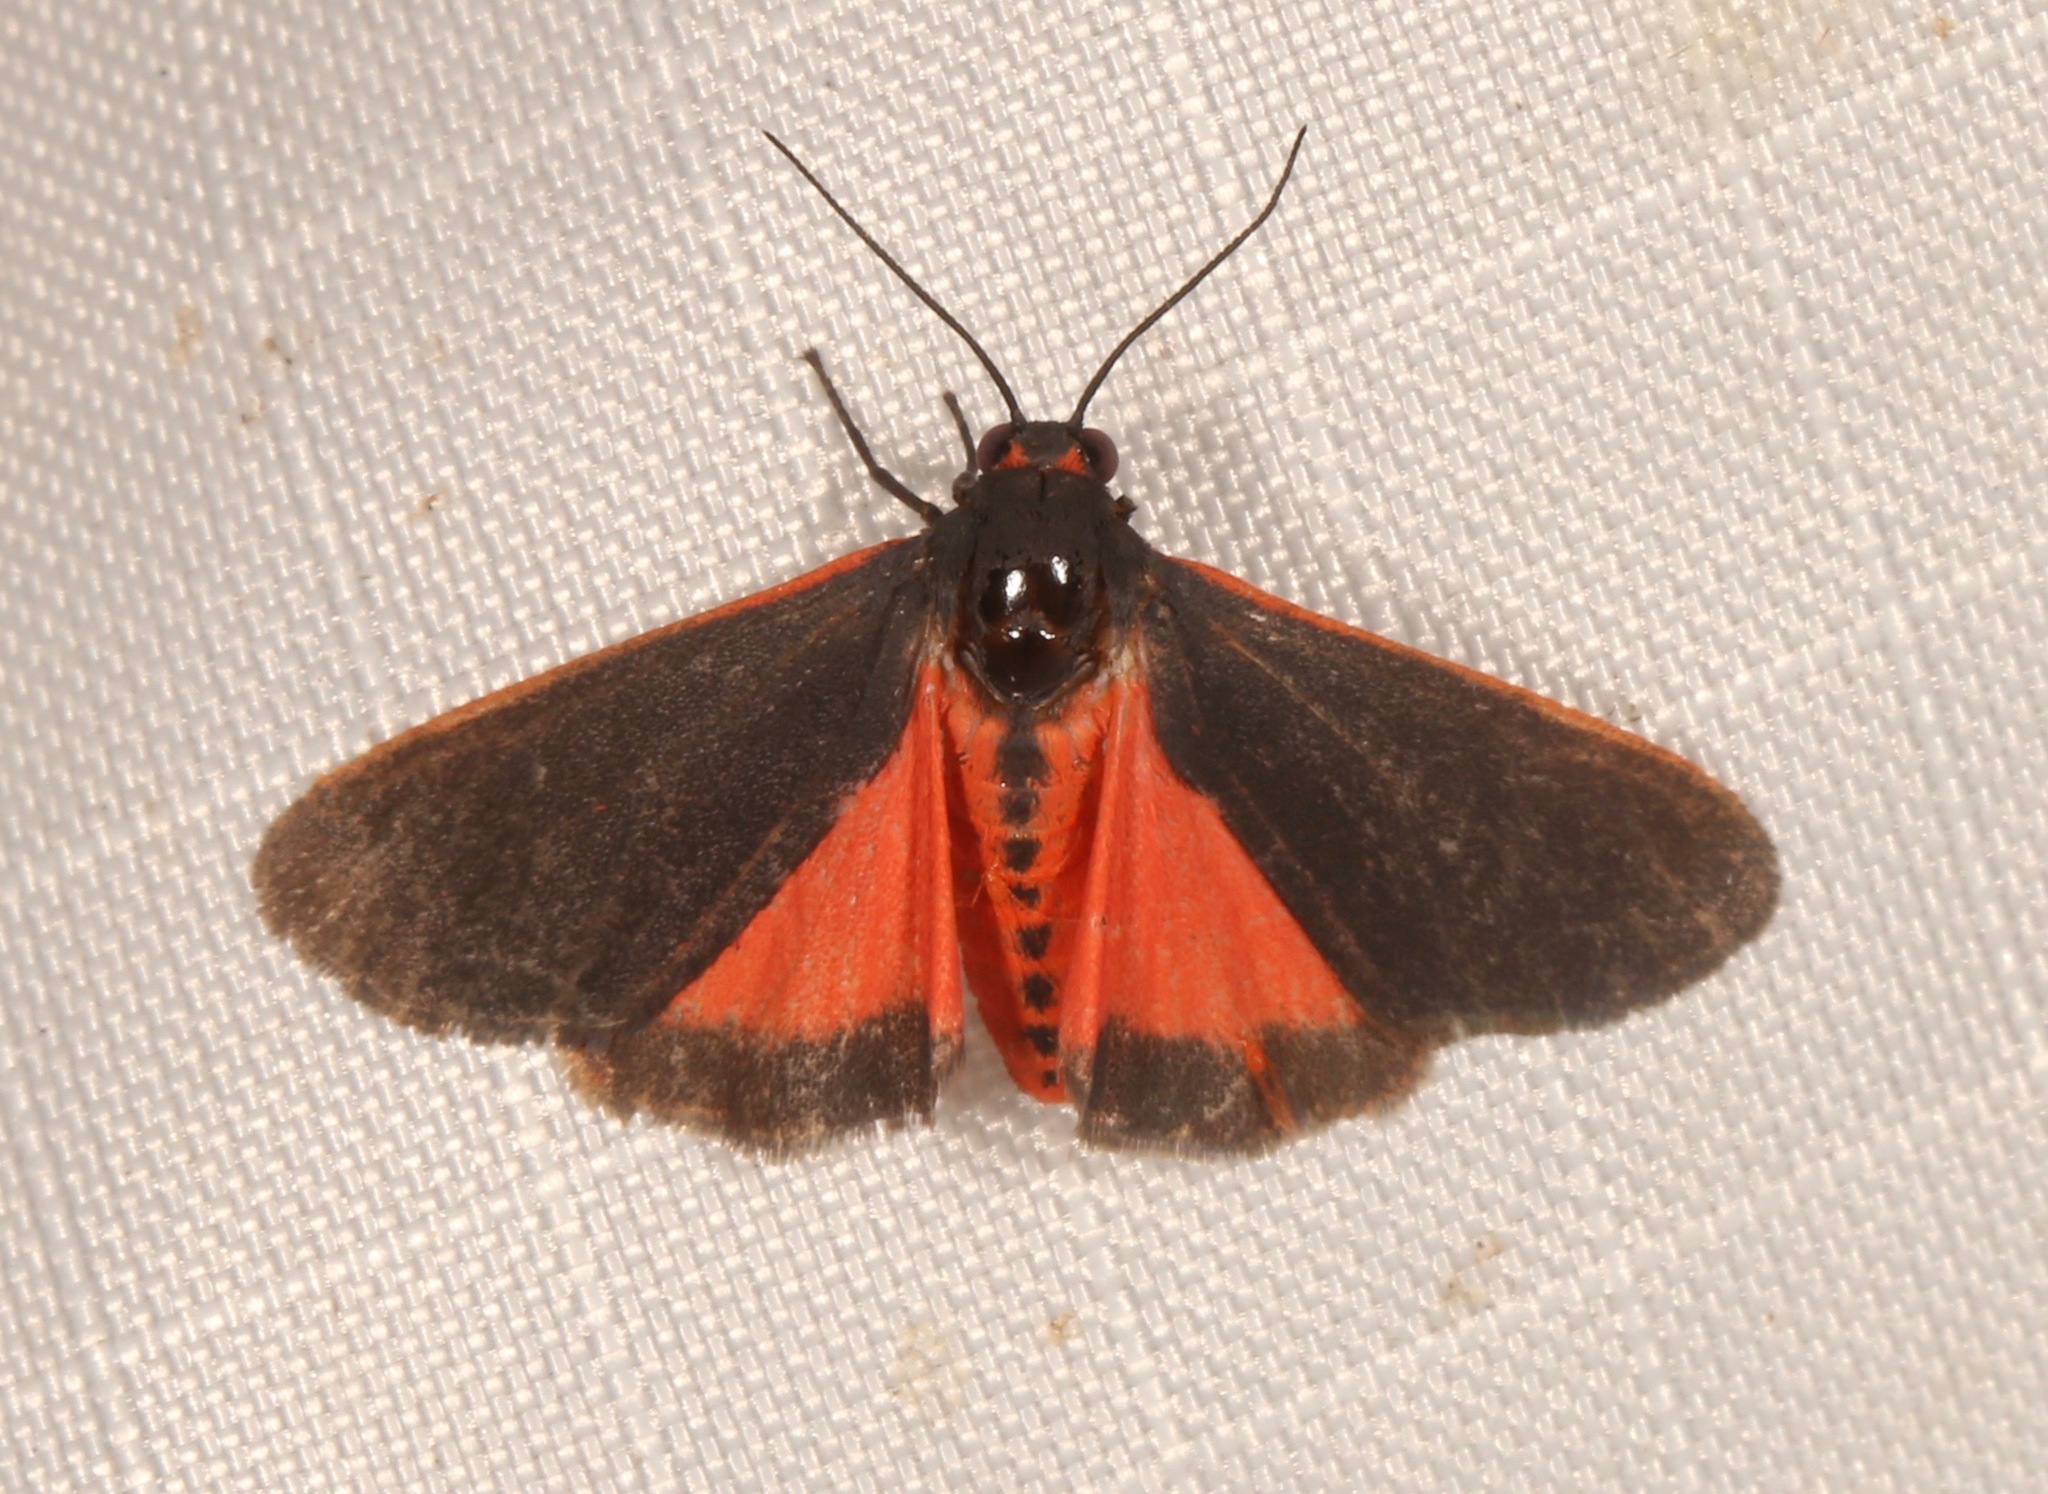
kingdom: Animalia
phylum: Arthropoda
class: Insecta
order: Lepidoptera
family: Erebidae
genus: Virbia
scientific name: Virbia laeta
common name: Joyful holomelina moth
